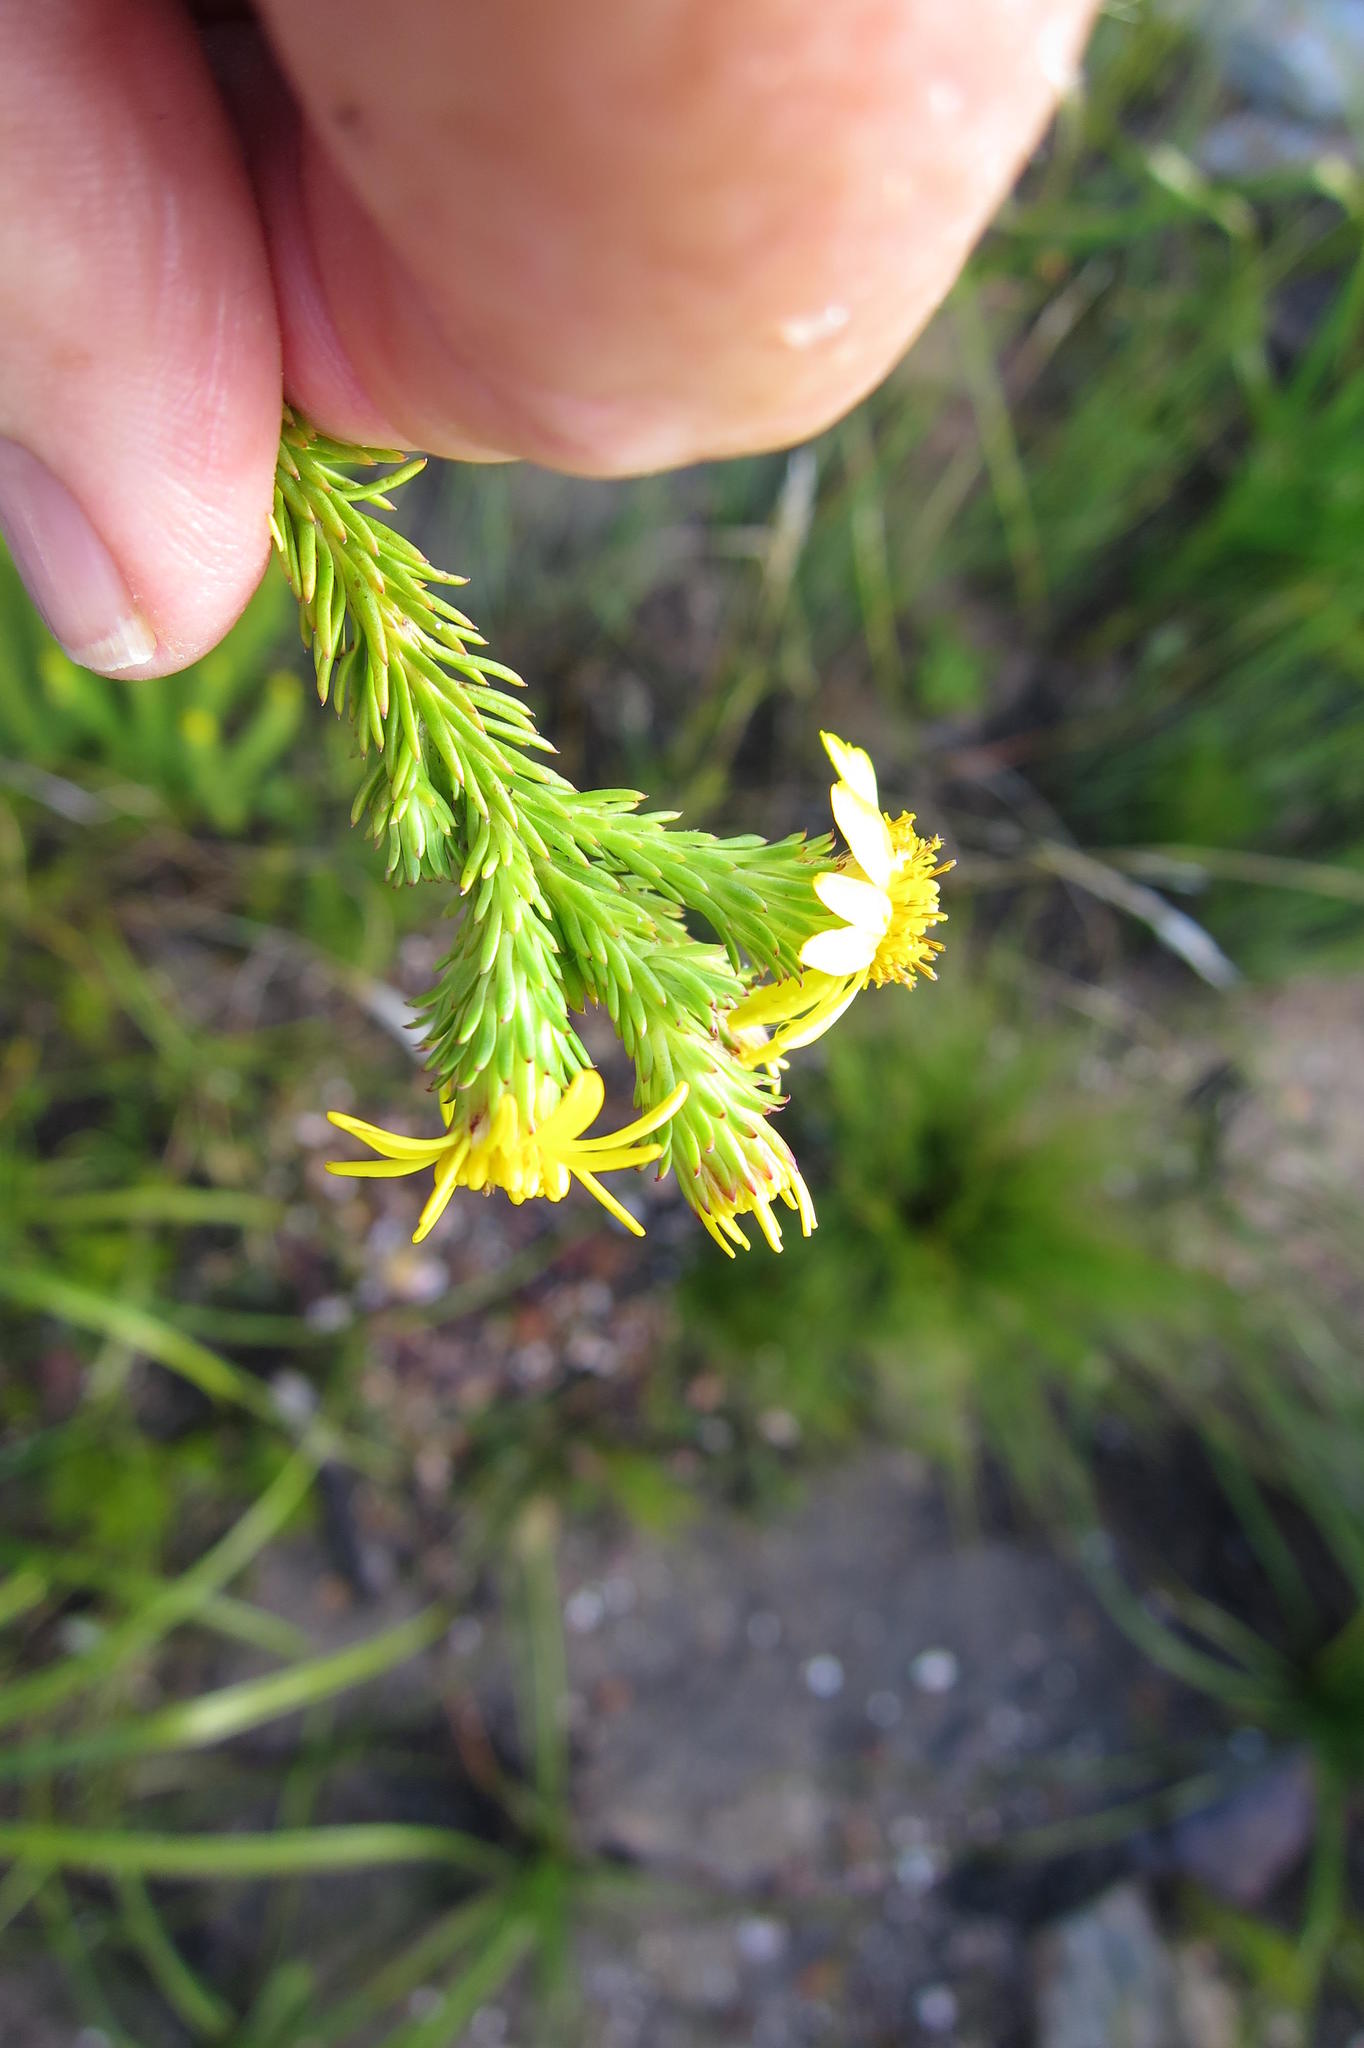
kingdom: Plantae
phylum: Tracheophyta
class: Magnoliopsida
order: Asterales
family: Asteraceae
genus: Senecio
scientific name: Senecio pinifolius
